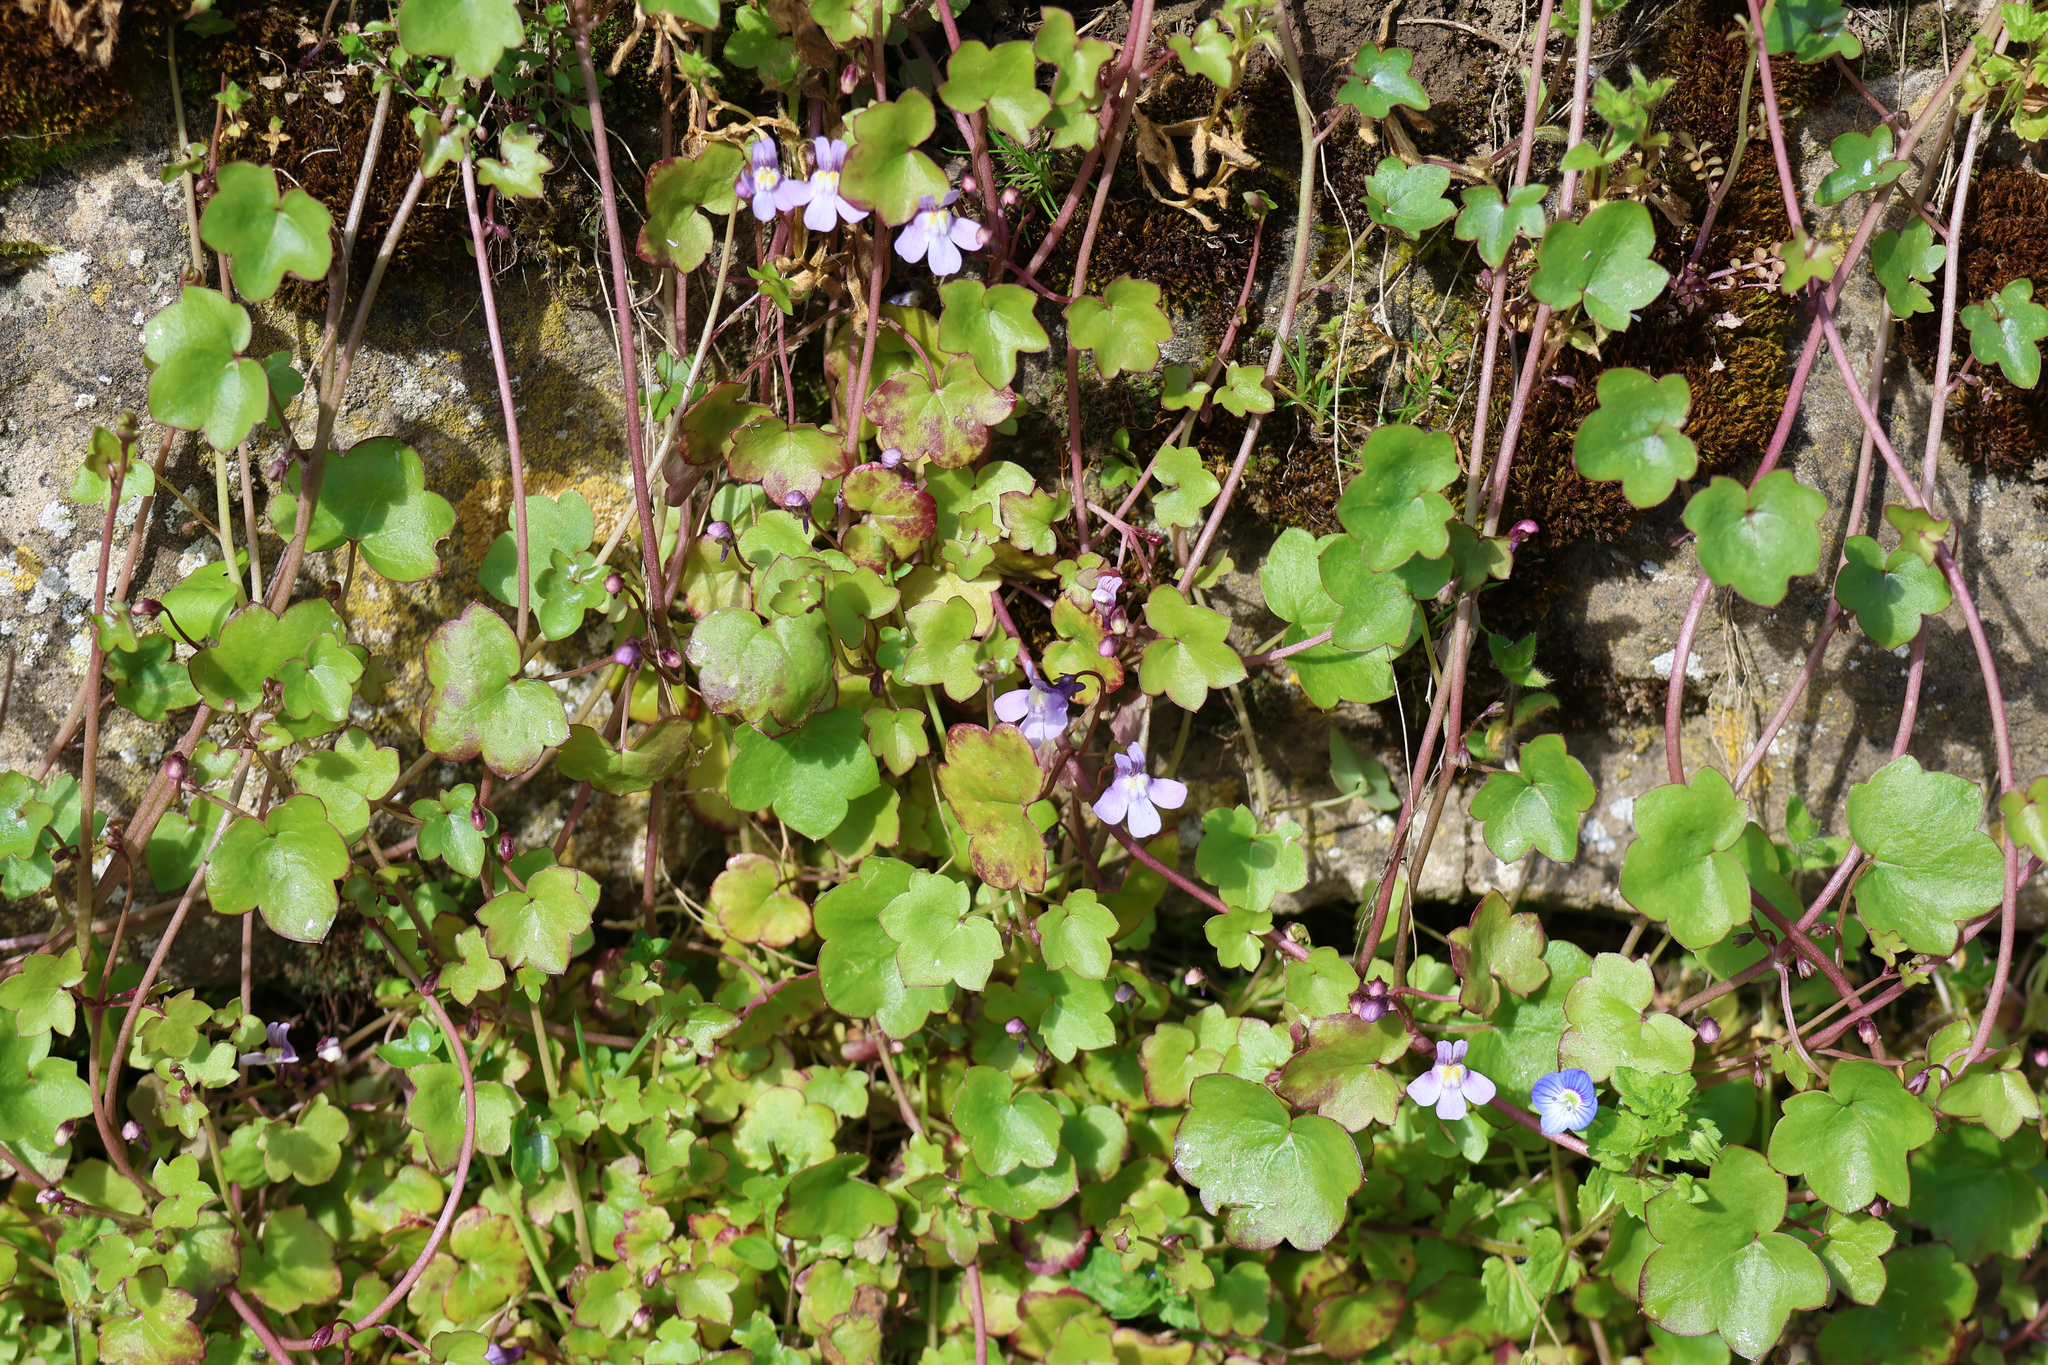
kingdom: Plantae
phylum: Tracheophyta
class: Magnoliopsida
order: Lamiales
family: Plantaginaceae
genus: Cymbalaria
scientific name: Cymbalaria muralis
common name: Ivy-leaved toadflax
